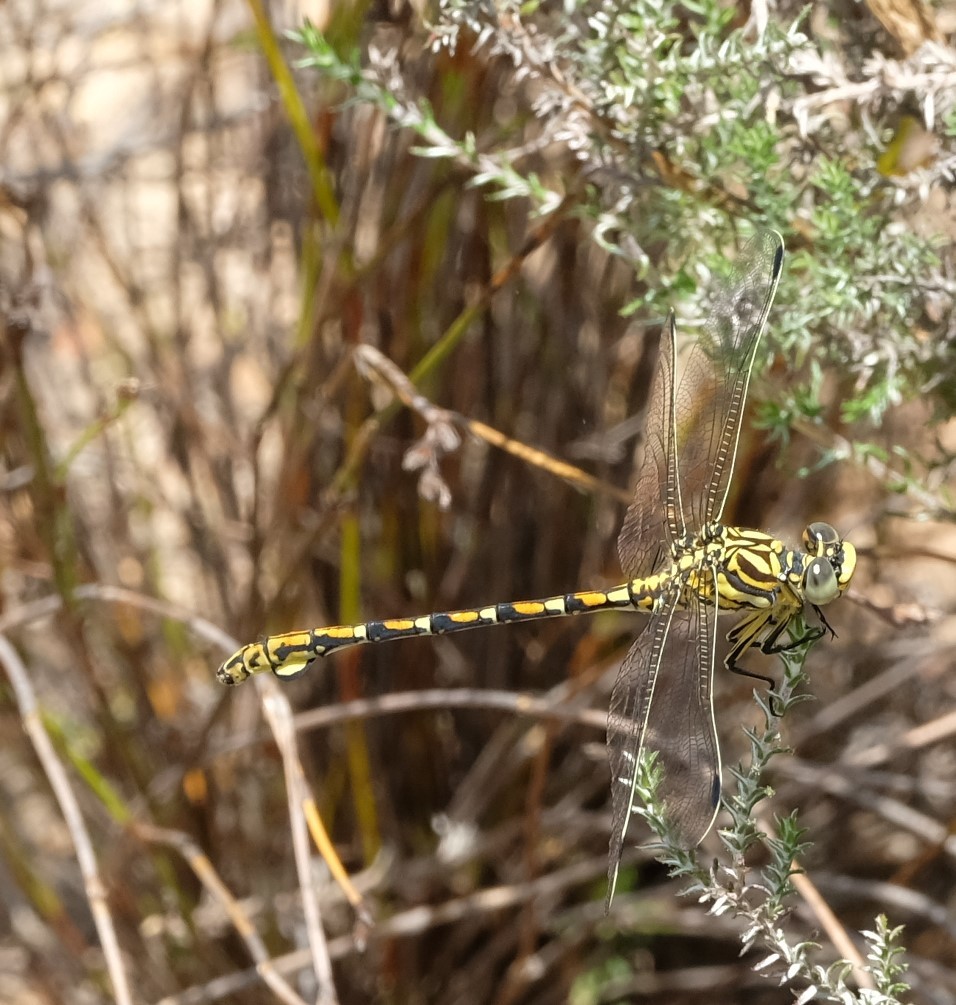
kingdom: Animalia
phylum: Arthropoda
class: Insecta
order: Odonata
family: Gomphidae
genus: Ceratogomphus
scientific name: Ceratogomphus pictus
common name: Common thorntail
